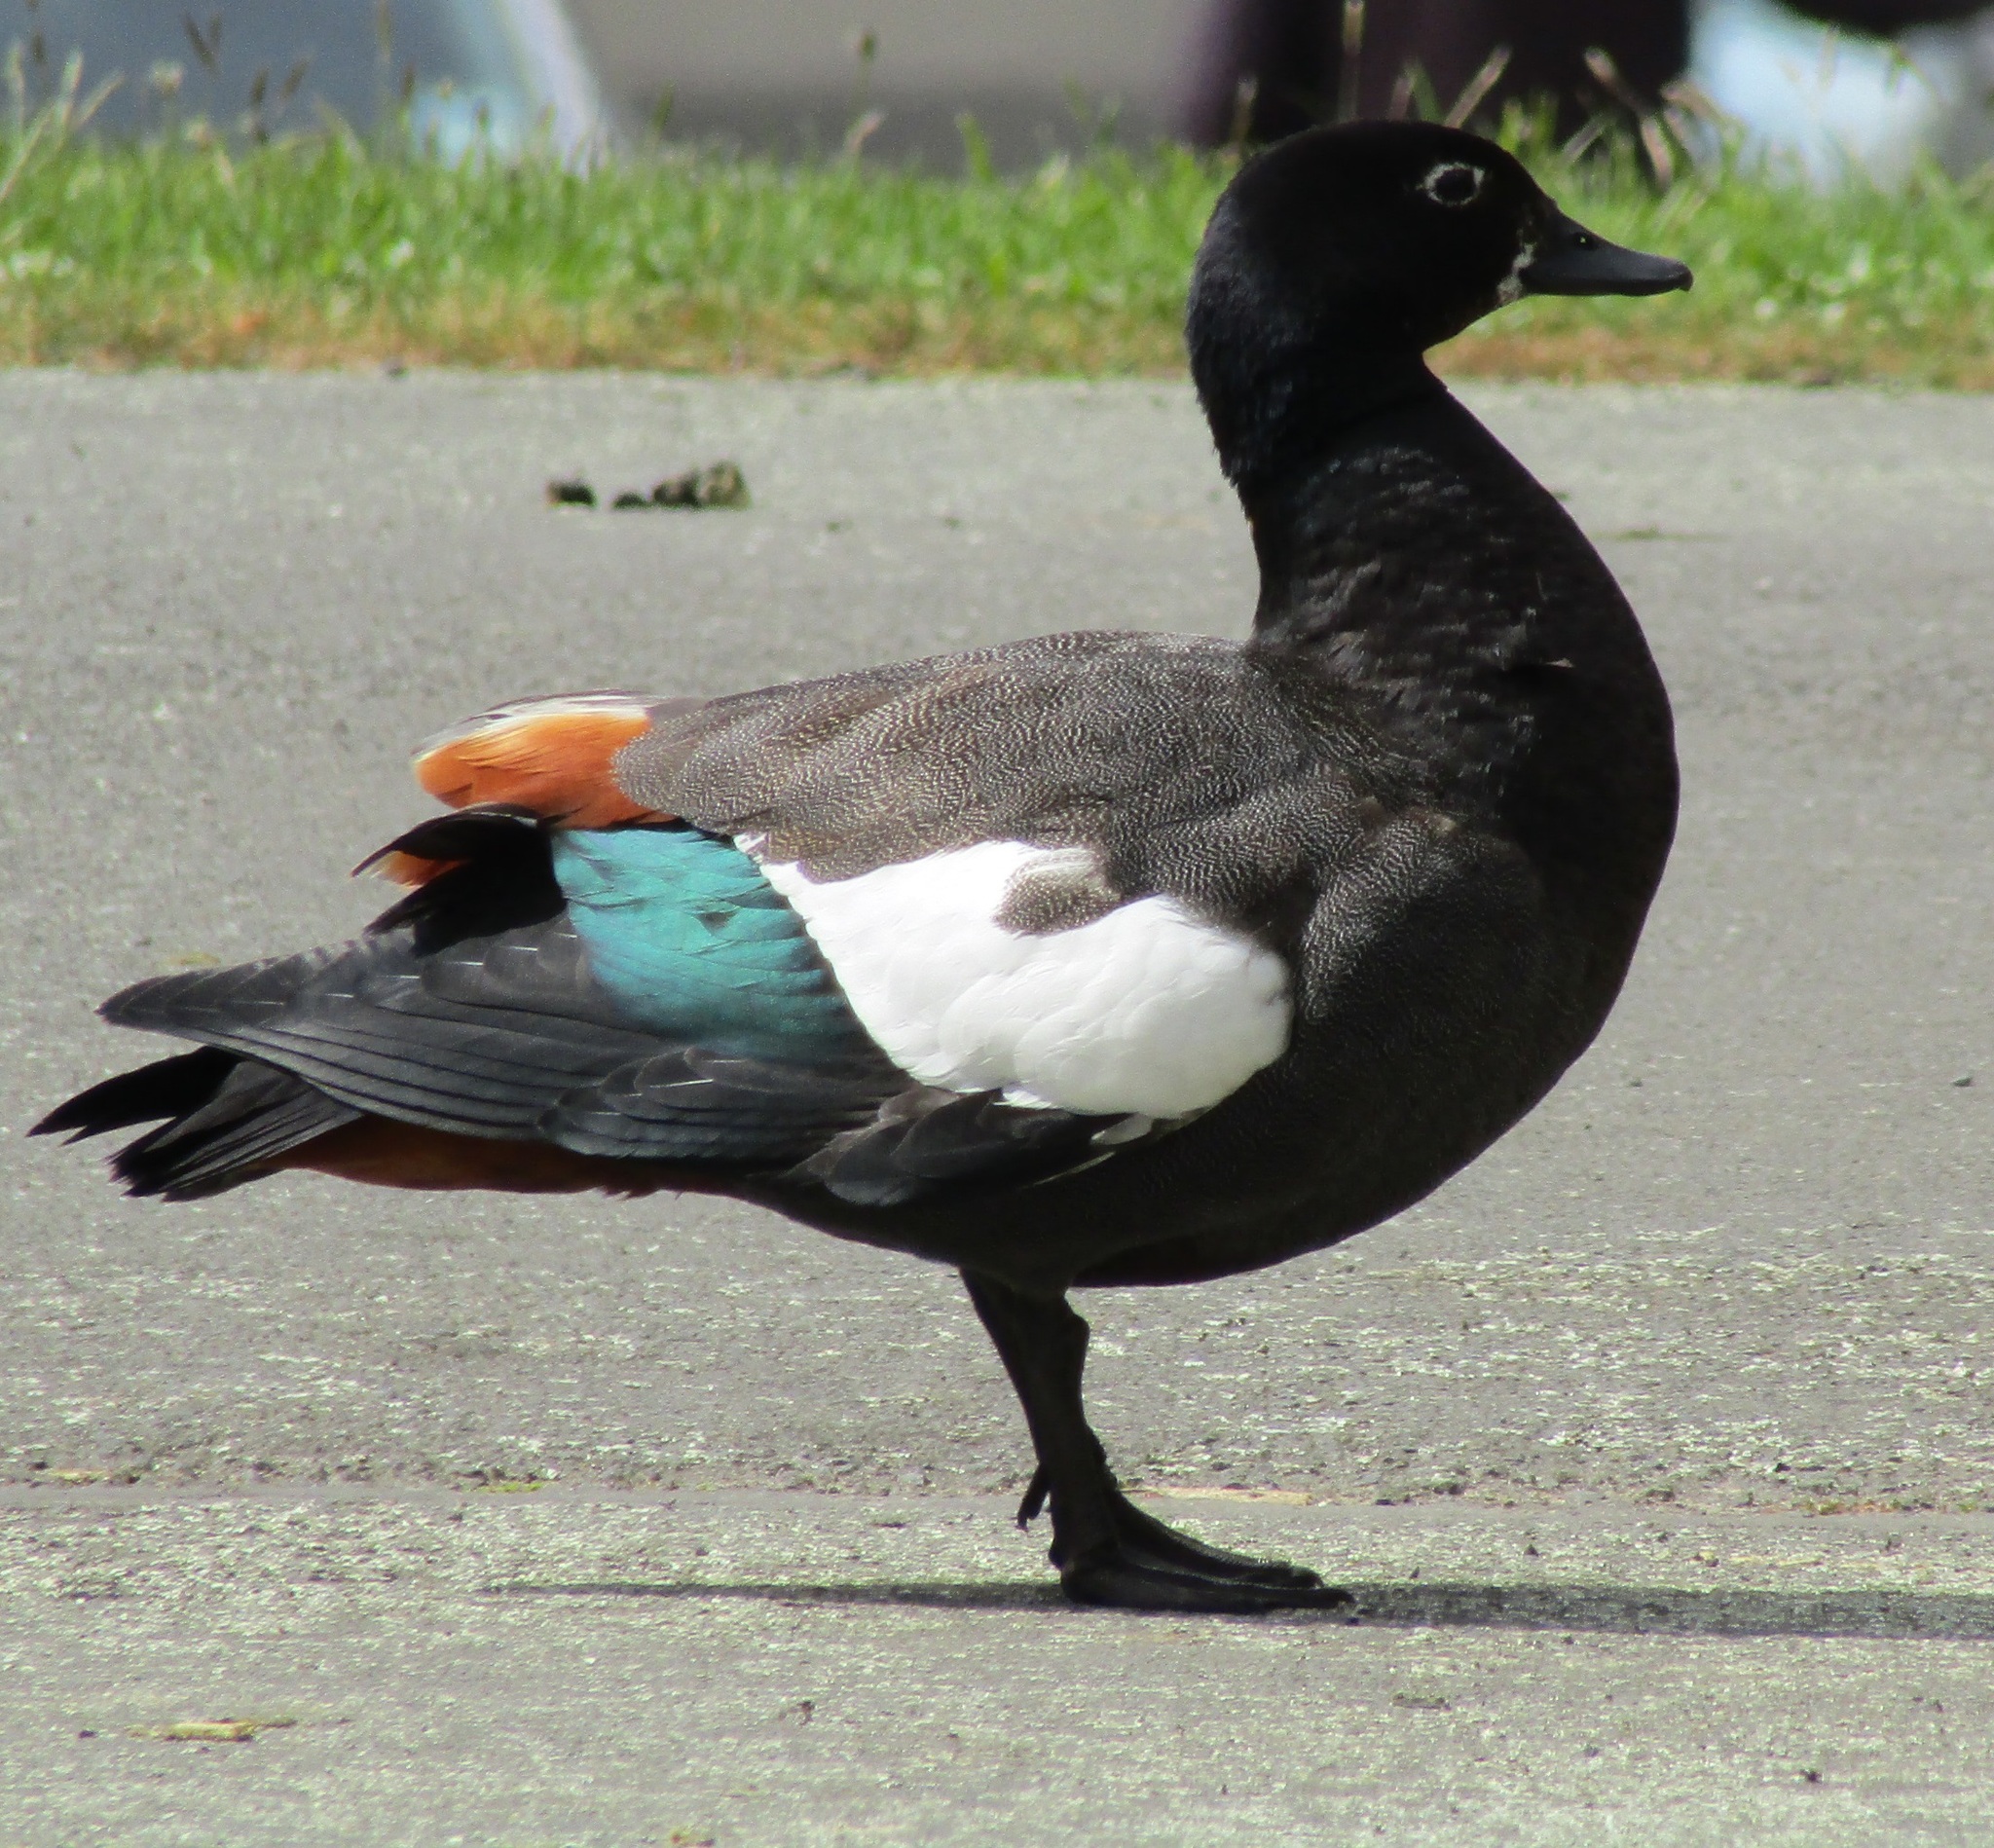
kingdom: Animalia
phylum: Chordata
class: Aves
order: Anseriformes
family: Anatidae
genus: Tadorna
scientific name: Tadorna variegata
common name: Paradise shelduck
